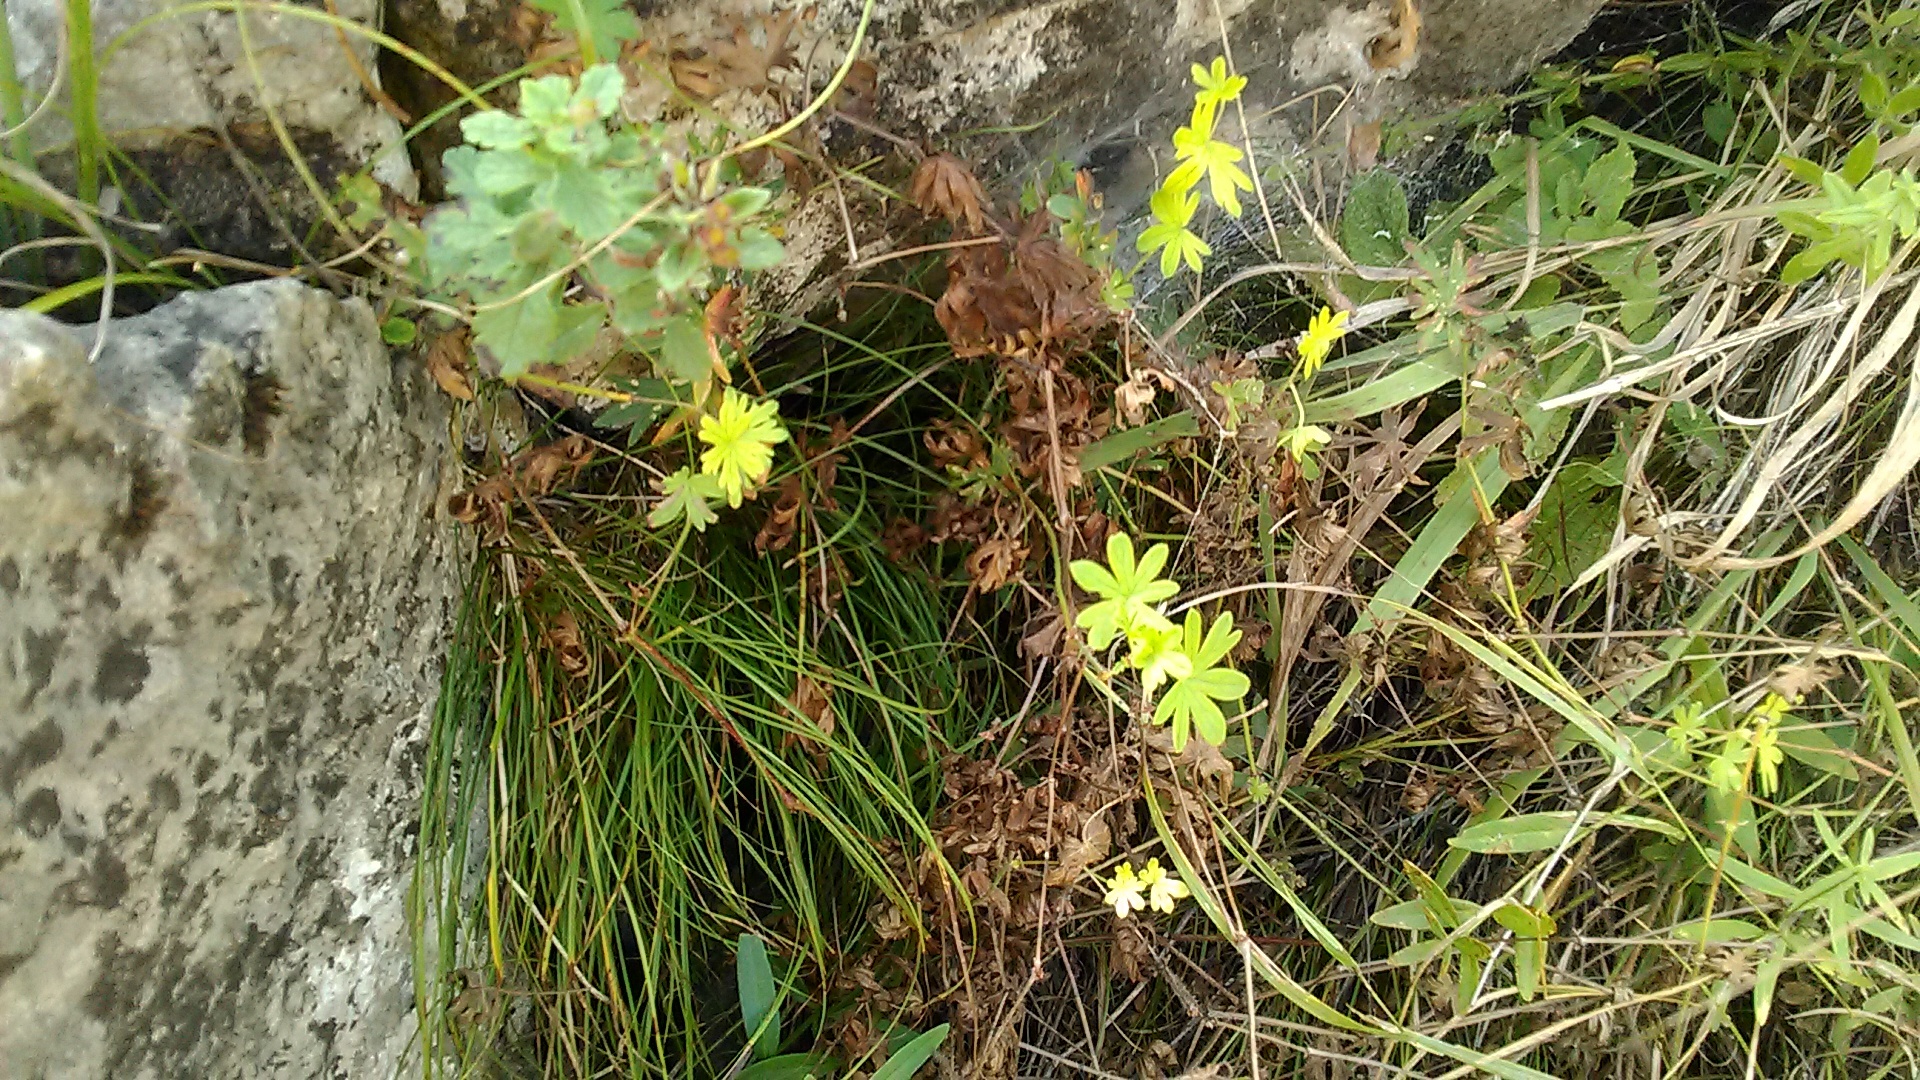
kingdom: Plantae
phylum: Tracheophyta
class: Magnoliopsida
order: Geraniales
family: Geraniaceae
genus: Geranium
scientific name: Geranium pusillum
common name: Small geranium
